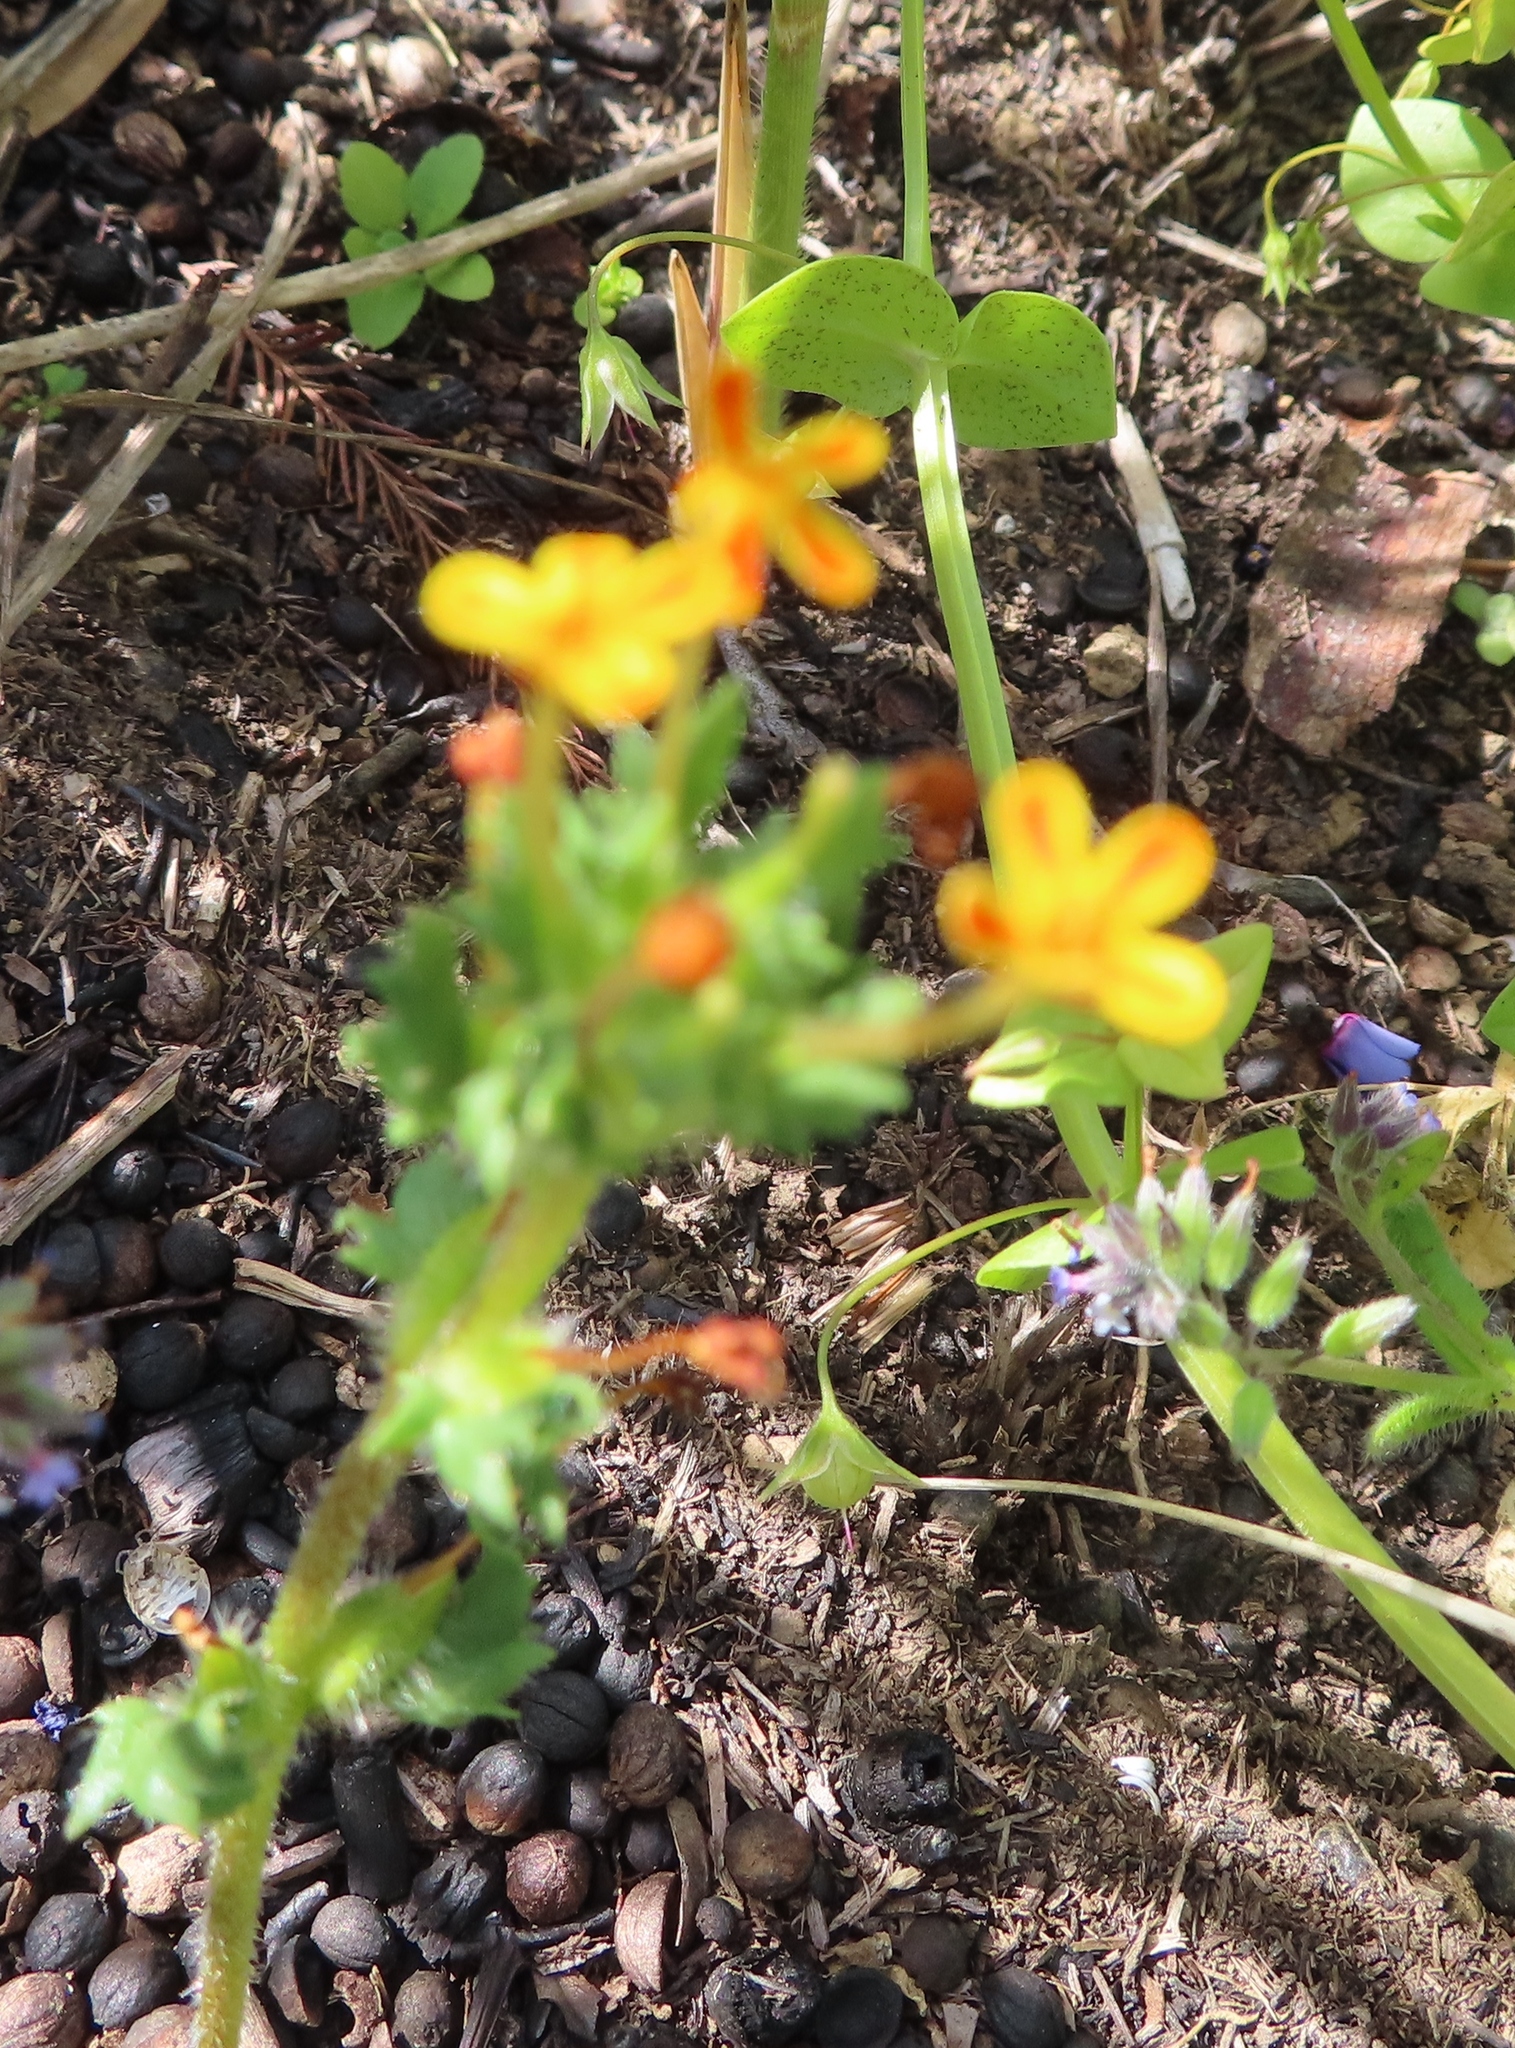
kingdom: Plantae
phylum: Tracheophyta
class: Magnoliopsida
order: Lamiales
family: Scrophulariaceae
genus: Zaluzianskya
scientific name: Zaluzianskya divaricata
